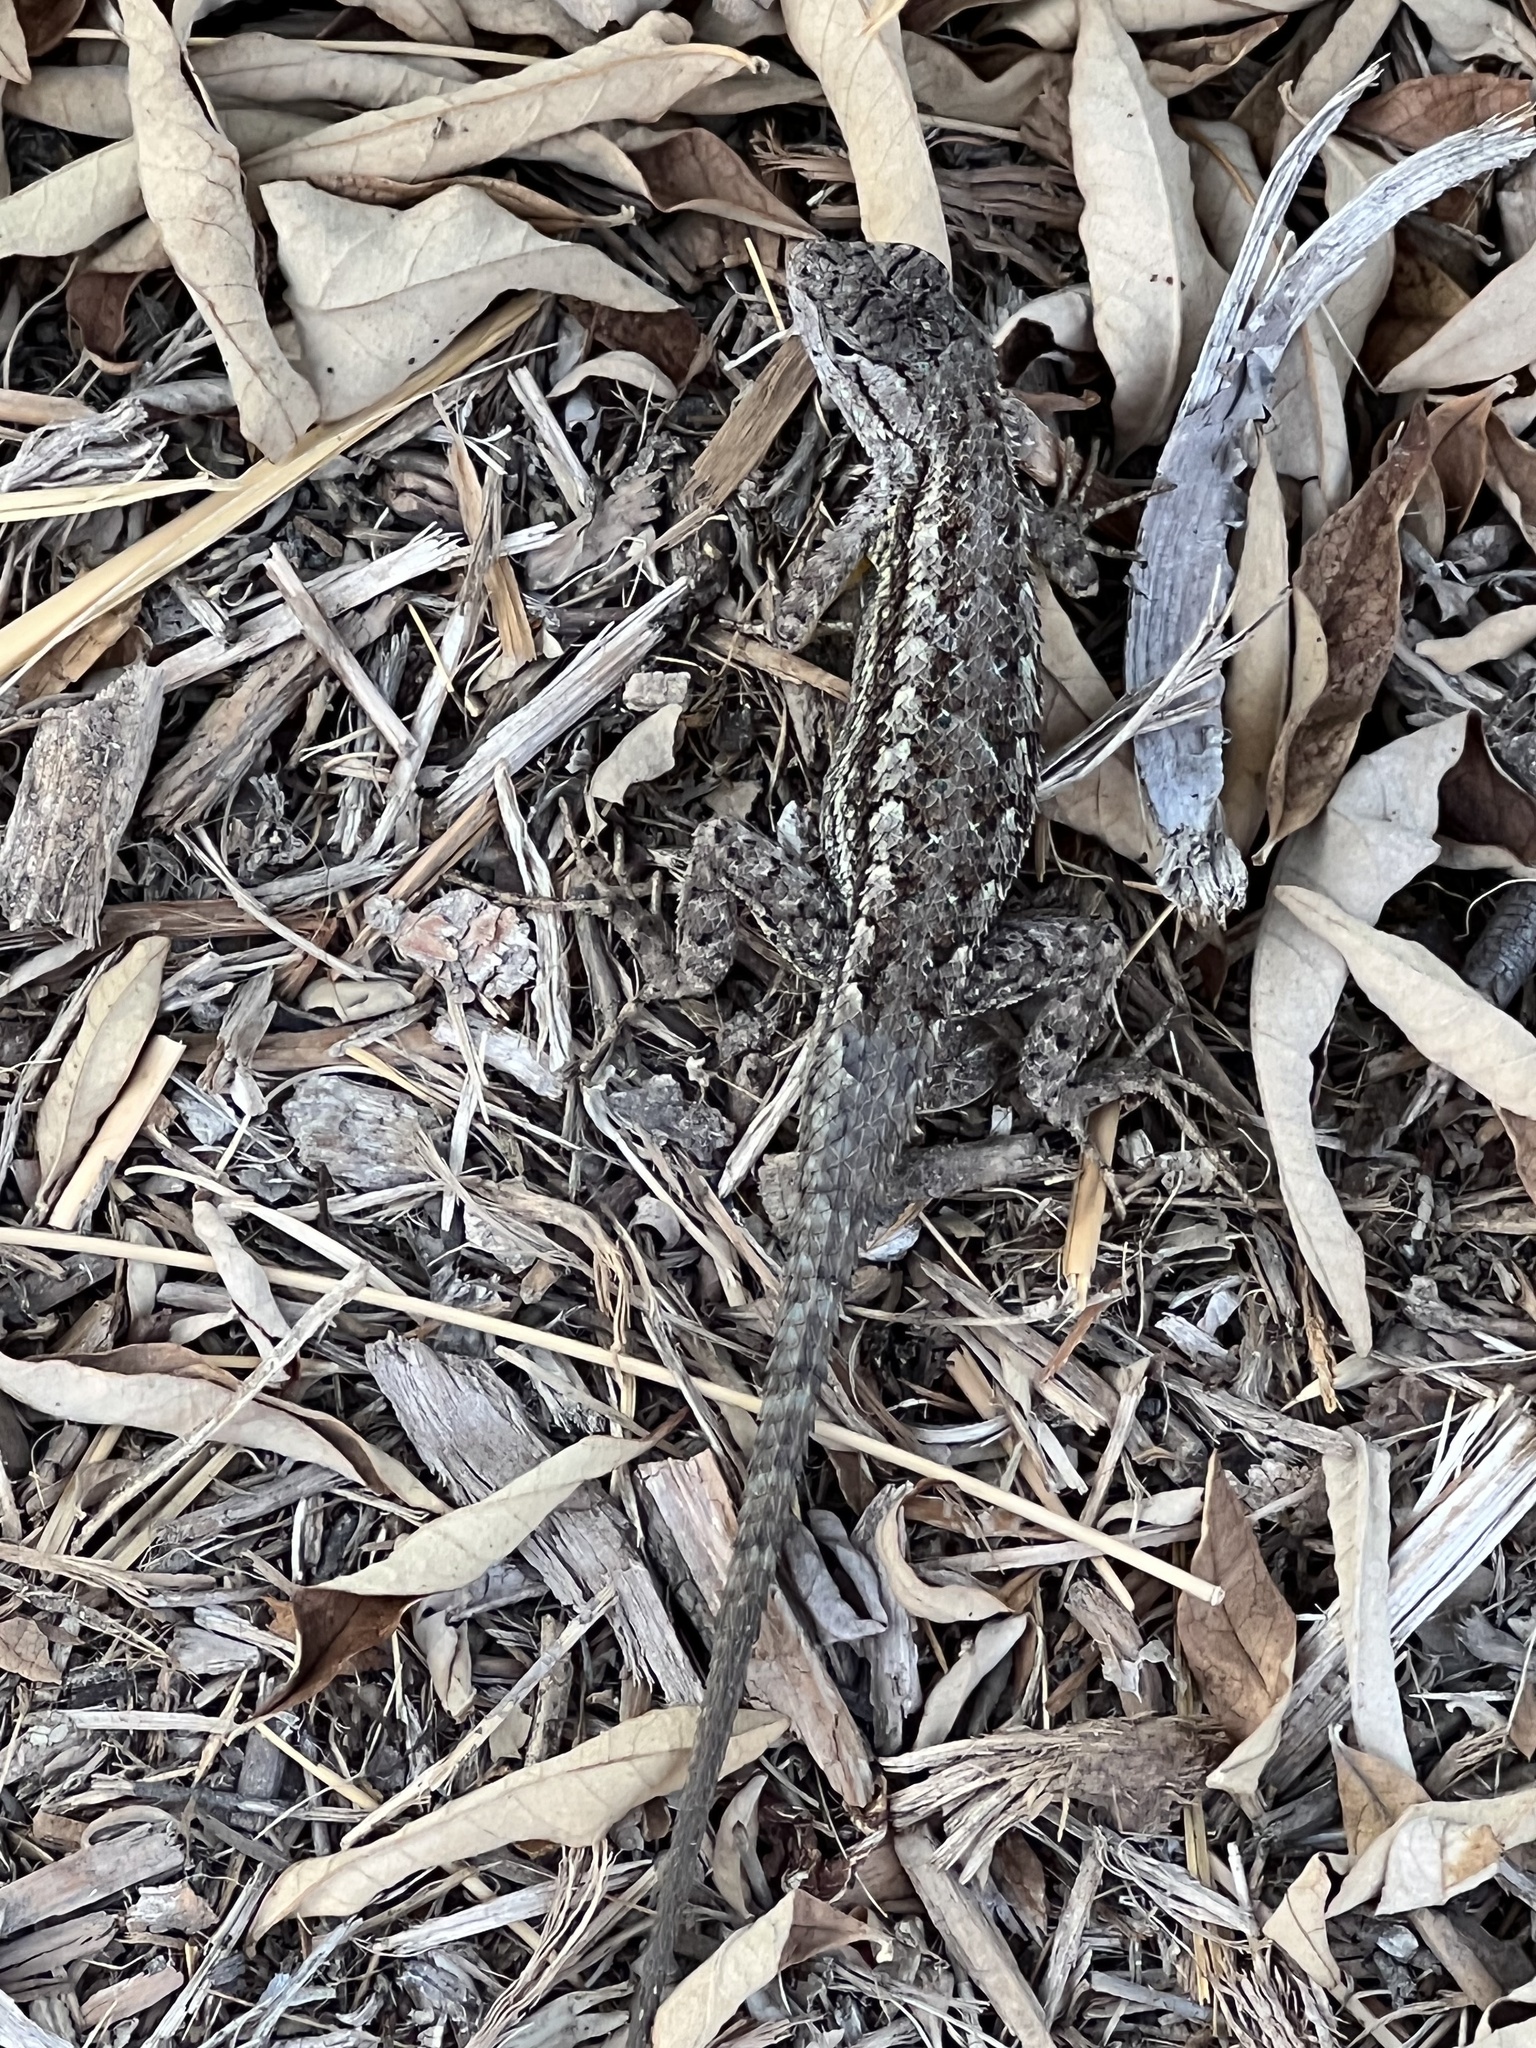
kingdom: Animalia
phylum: Chordata
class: Squamata
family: Phrynosomatidae
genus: Sceloporus
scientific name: Sceloporus occidentalis
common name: Western fence lizard
